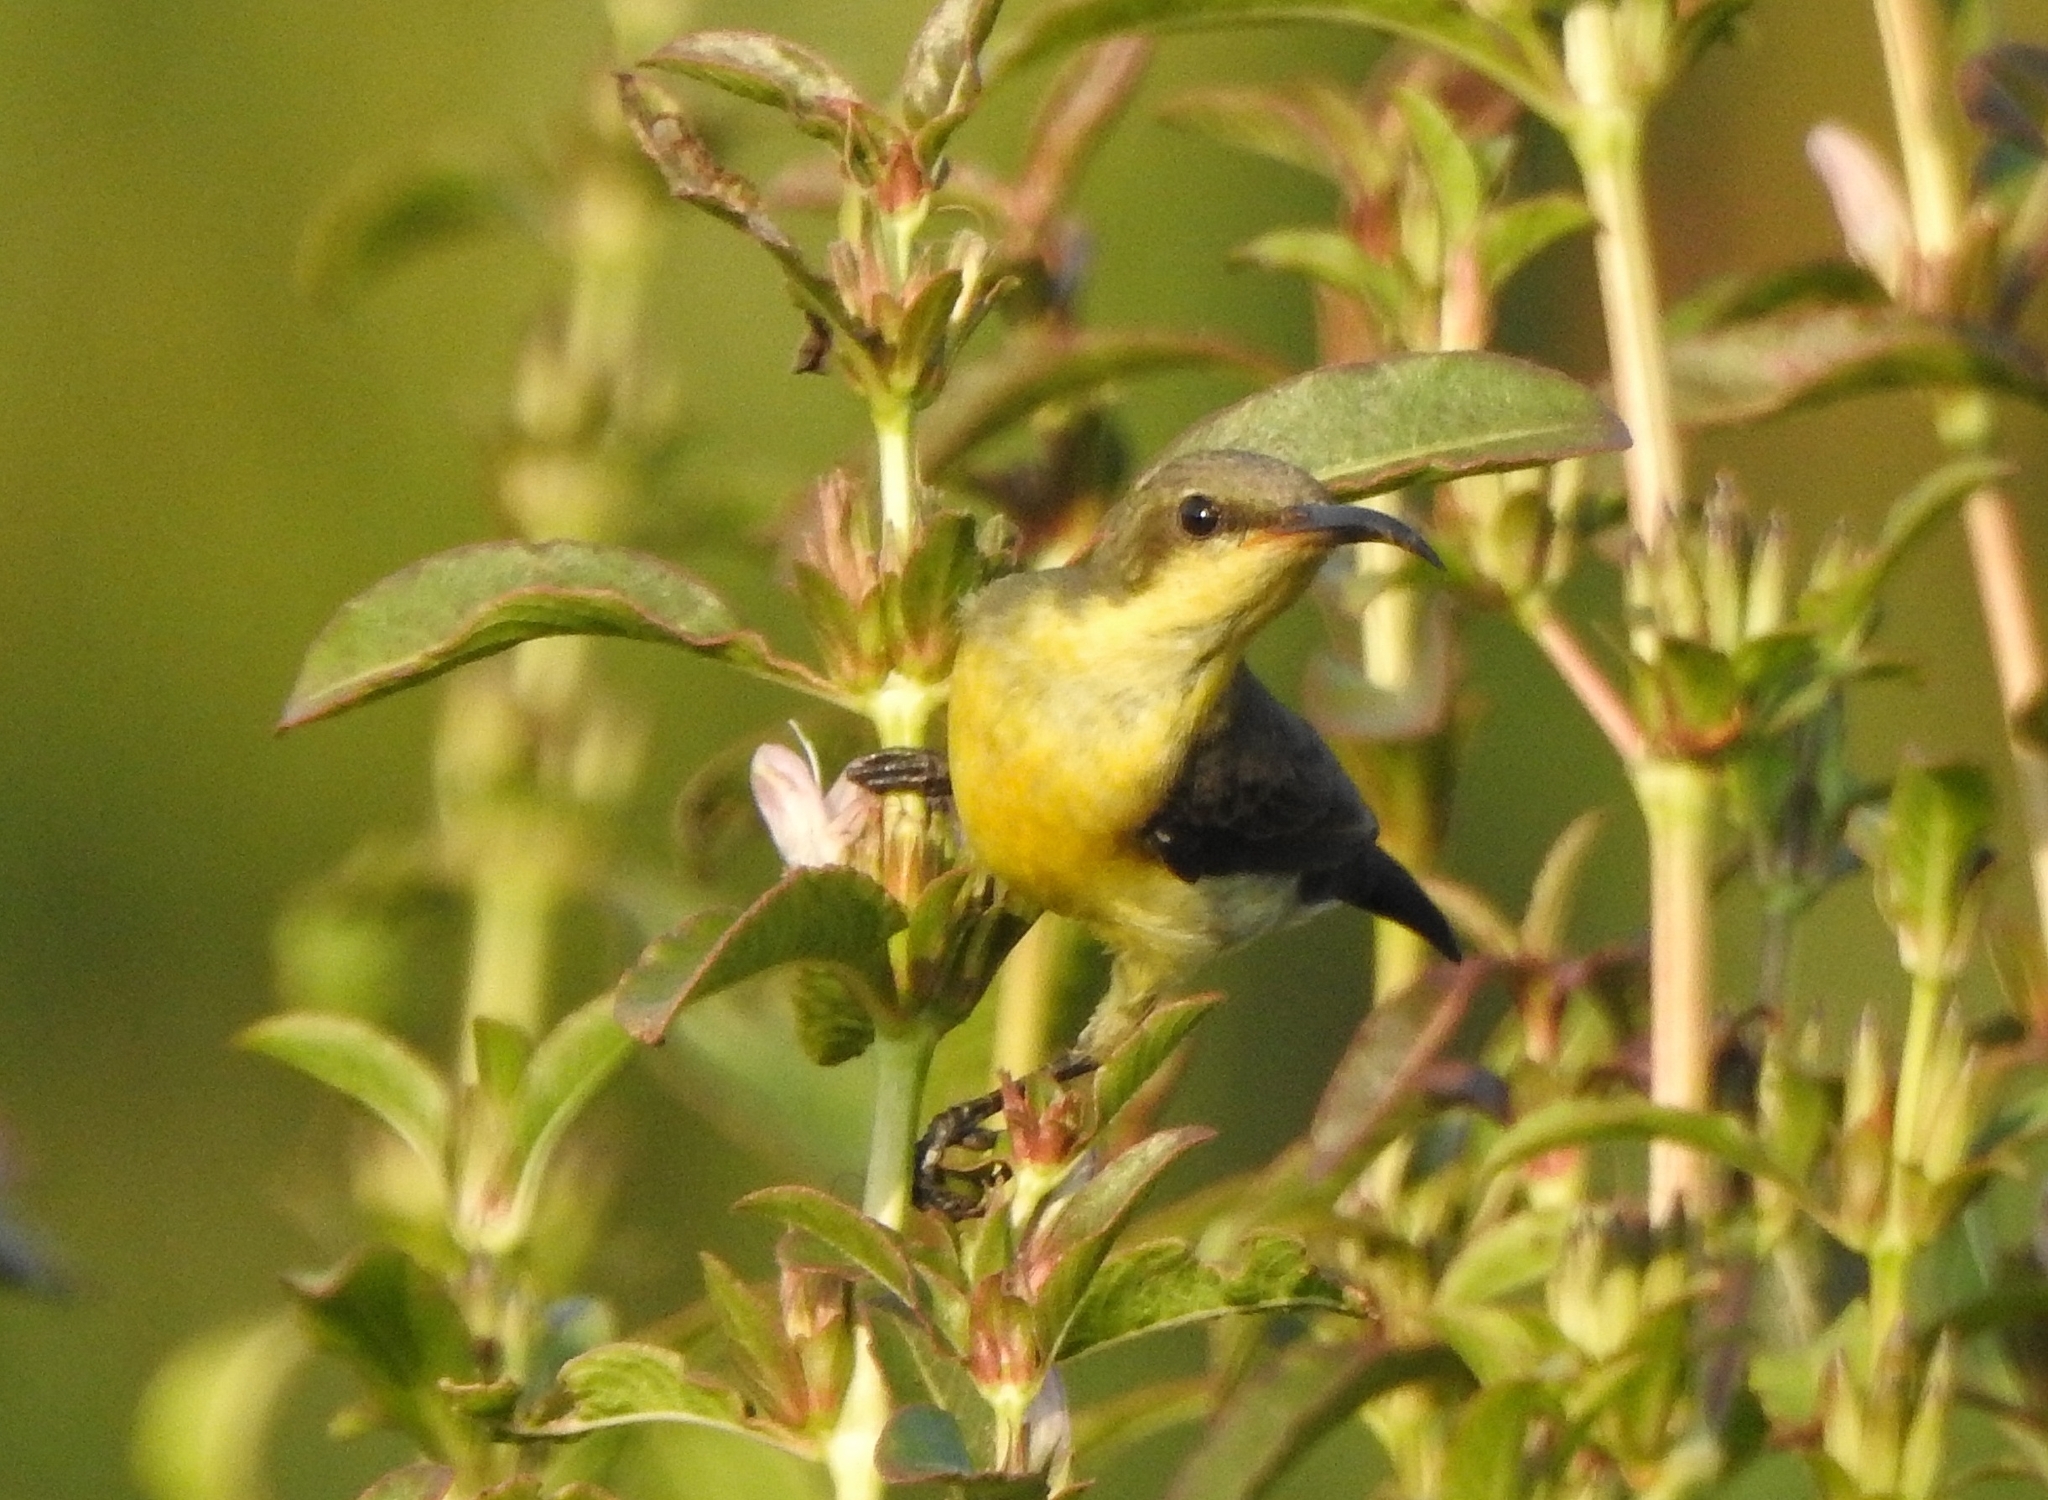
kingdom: Animalia
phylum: Chordata
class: Aves
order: Passeriformes
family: Nectariniidae
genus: Cinnyris
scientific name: Cinnyris asiaticus
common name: Purple sunbird
